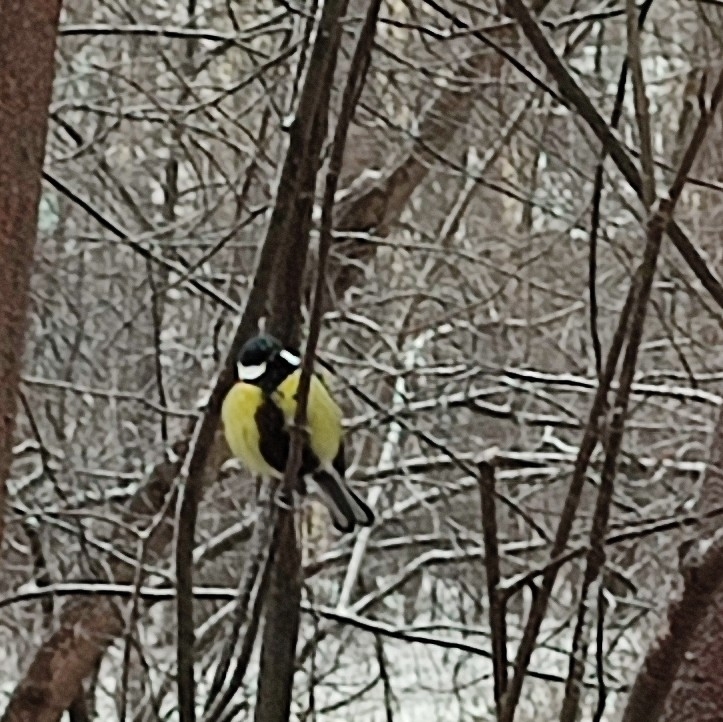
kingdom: Animalia
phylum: Chordata
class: Aves
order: Passeriformes
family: Paridae
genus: Parus
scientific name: Parus major
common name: Great tit
